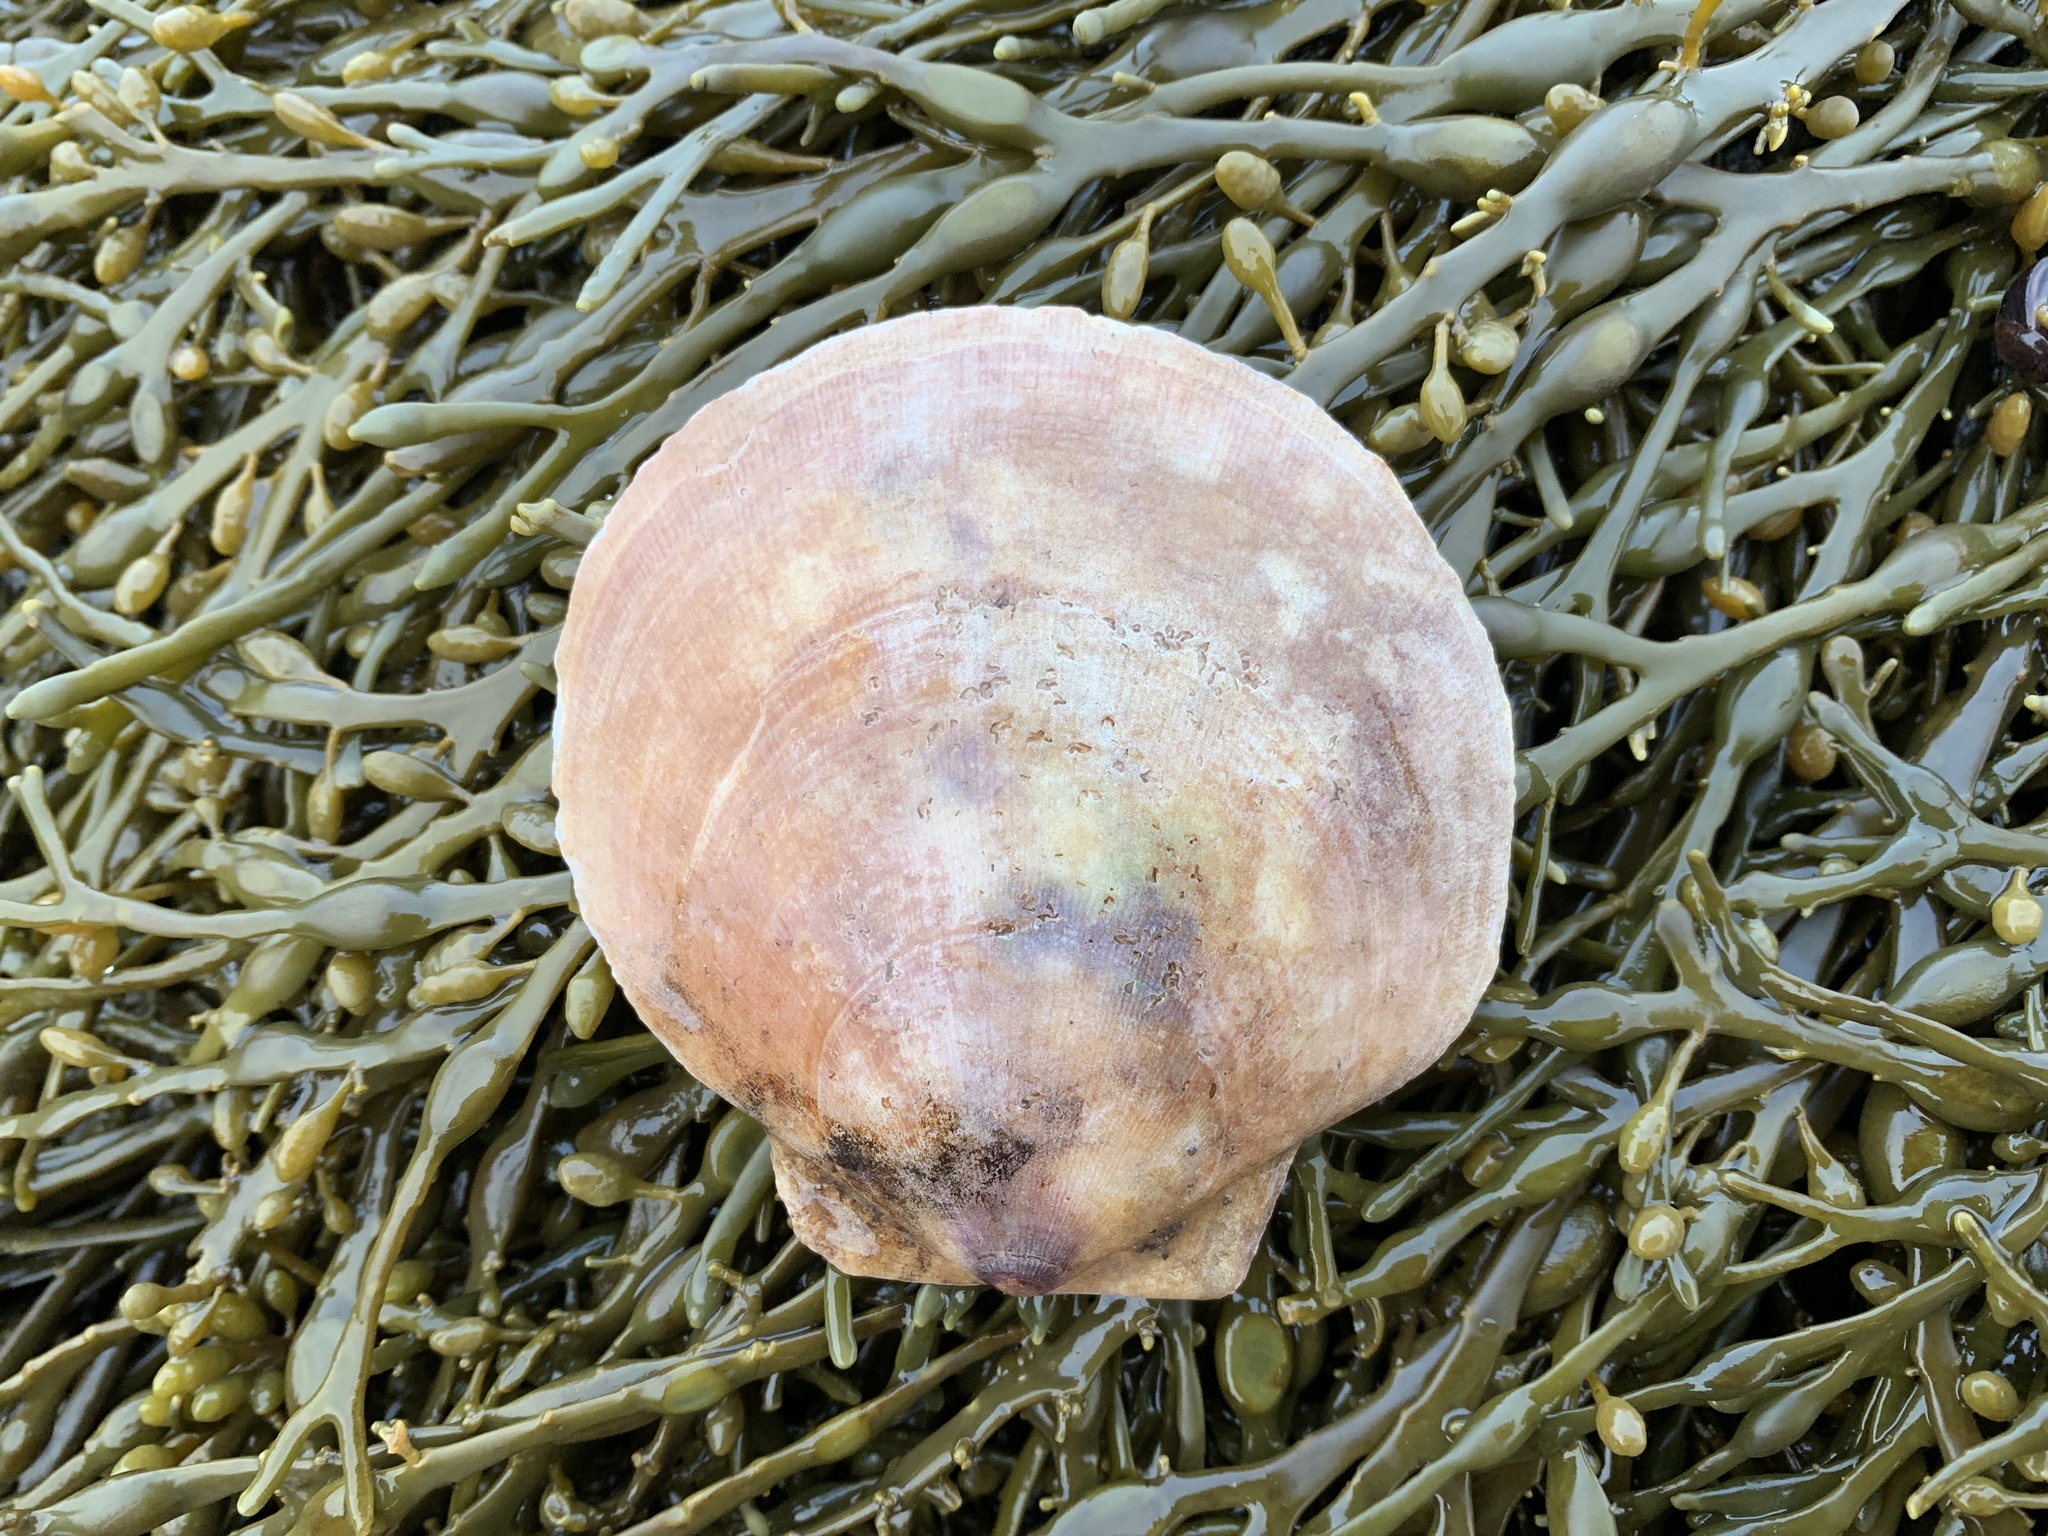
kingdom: Animalia
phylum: Mollusca
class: Bivalvia
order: Pectinida
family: Pectinidae
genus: Placopecten
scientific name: Placopecten magellanicus
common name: American sea scallop
